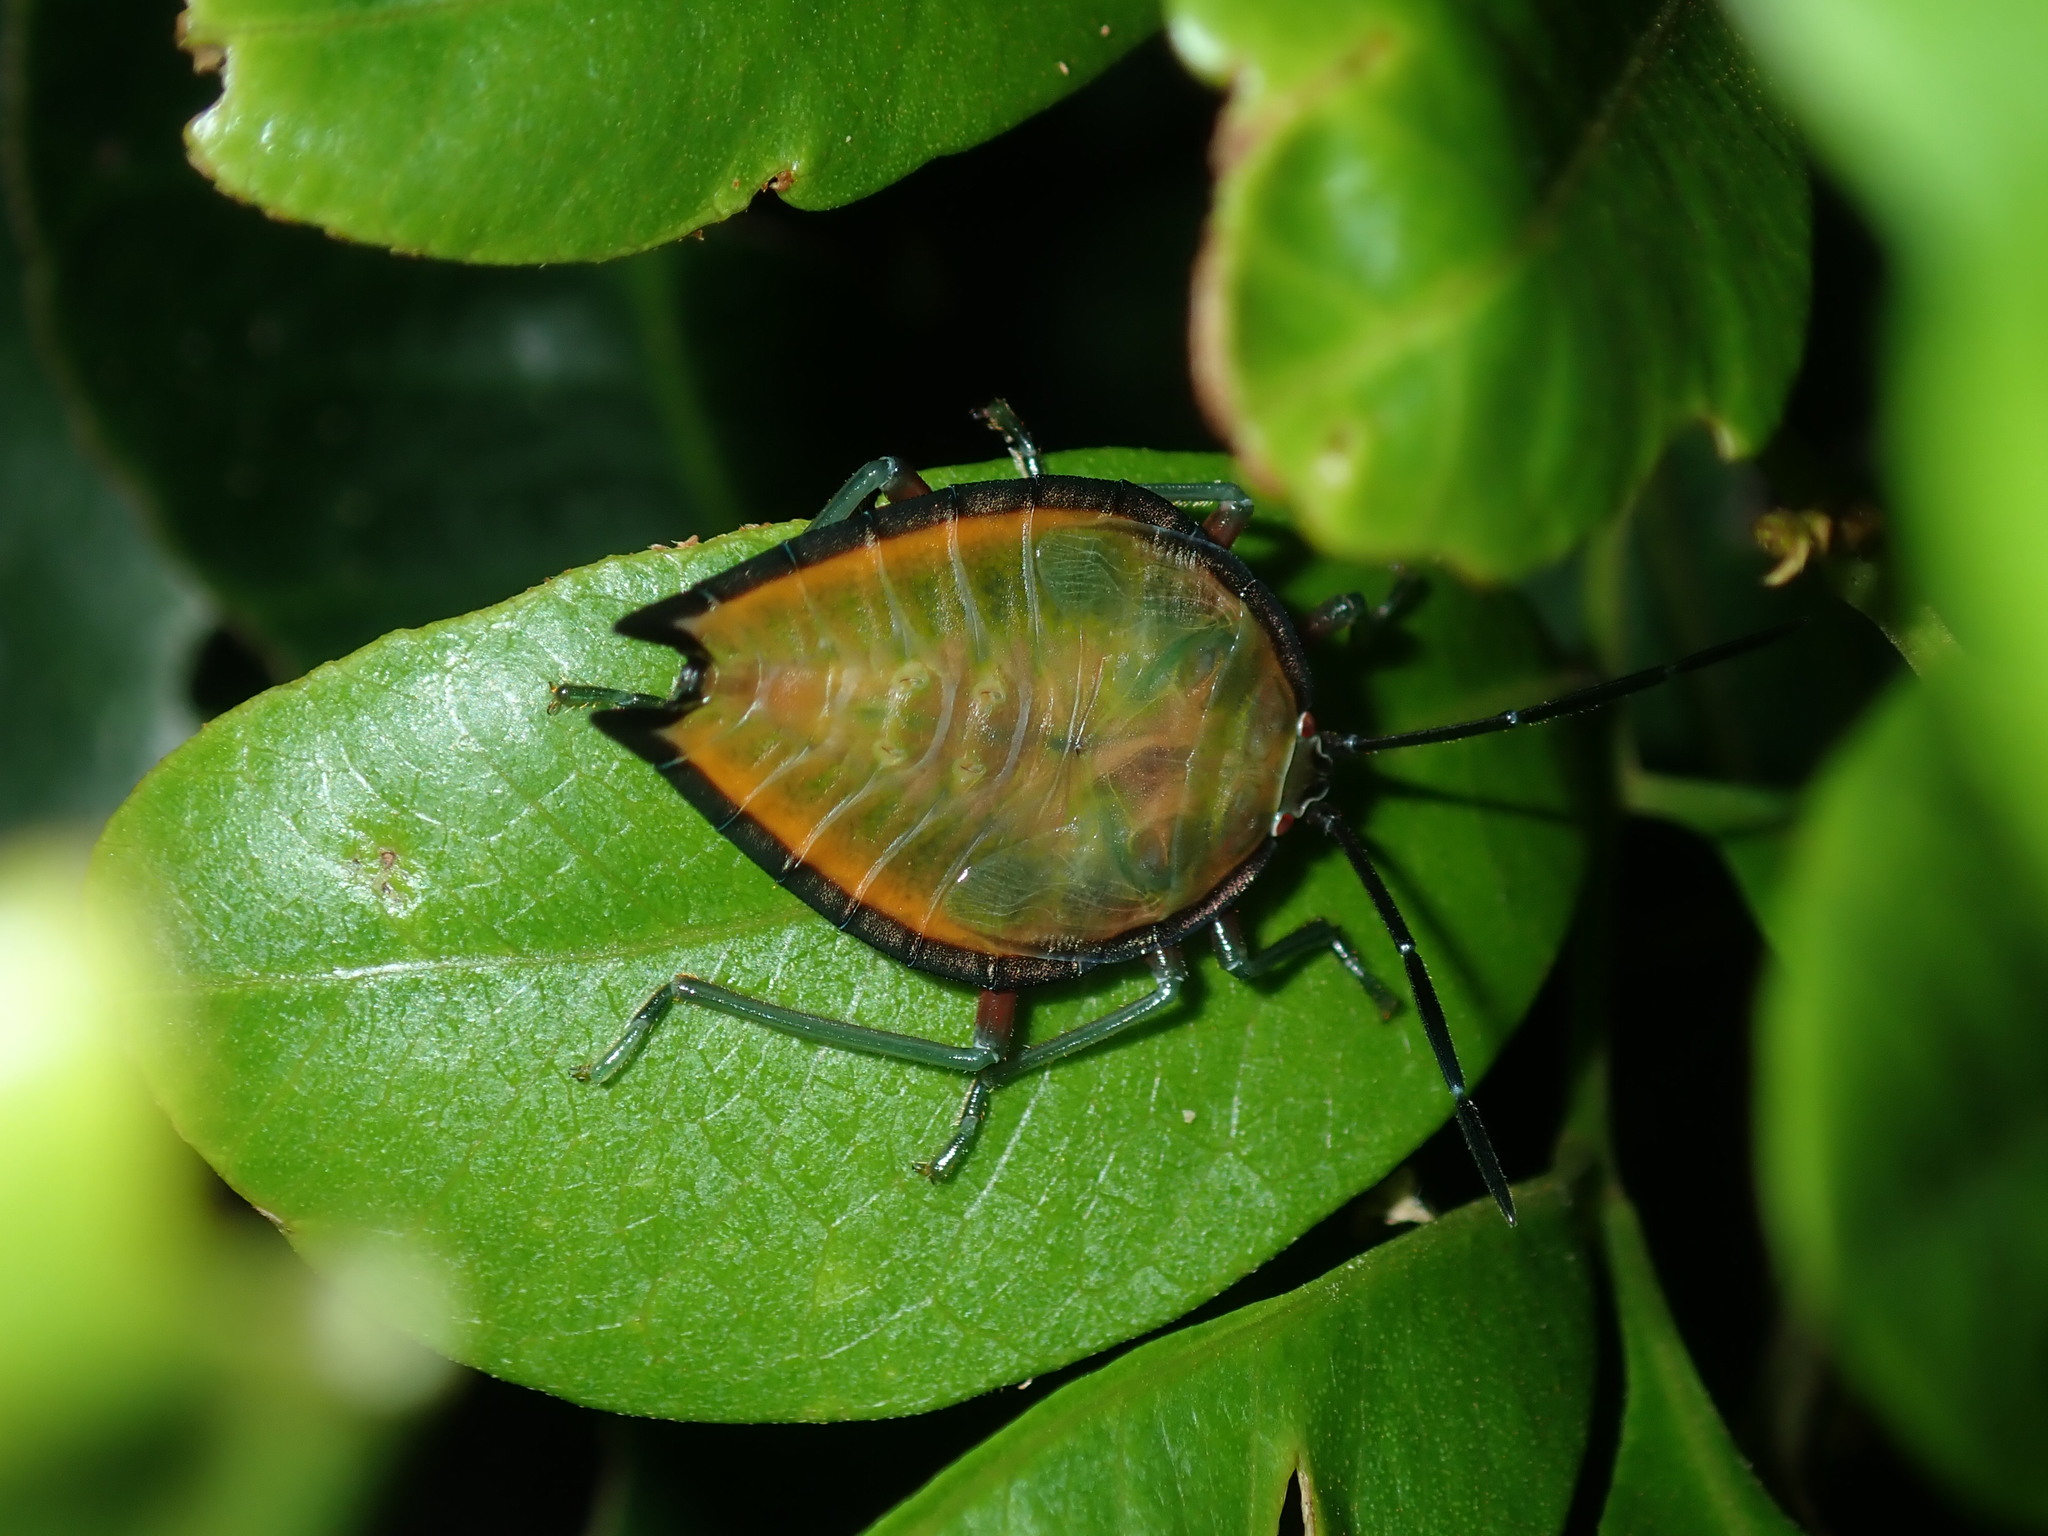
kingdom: Animalia
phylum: Arthropoda
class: Insecta
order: Hemiptera
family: Tessaratomidae
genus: Lyramorpha
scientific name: Lyramorpha rosea
